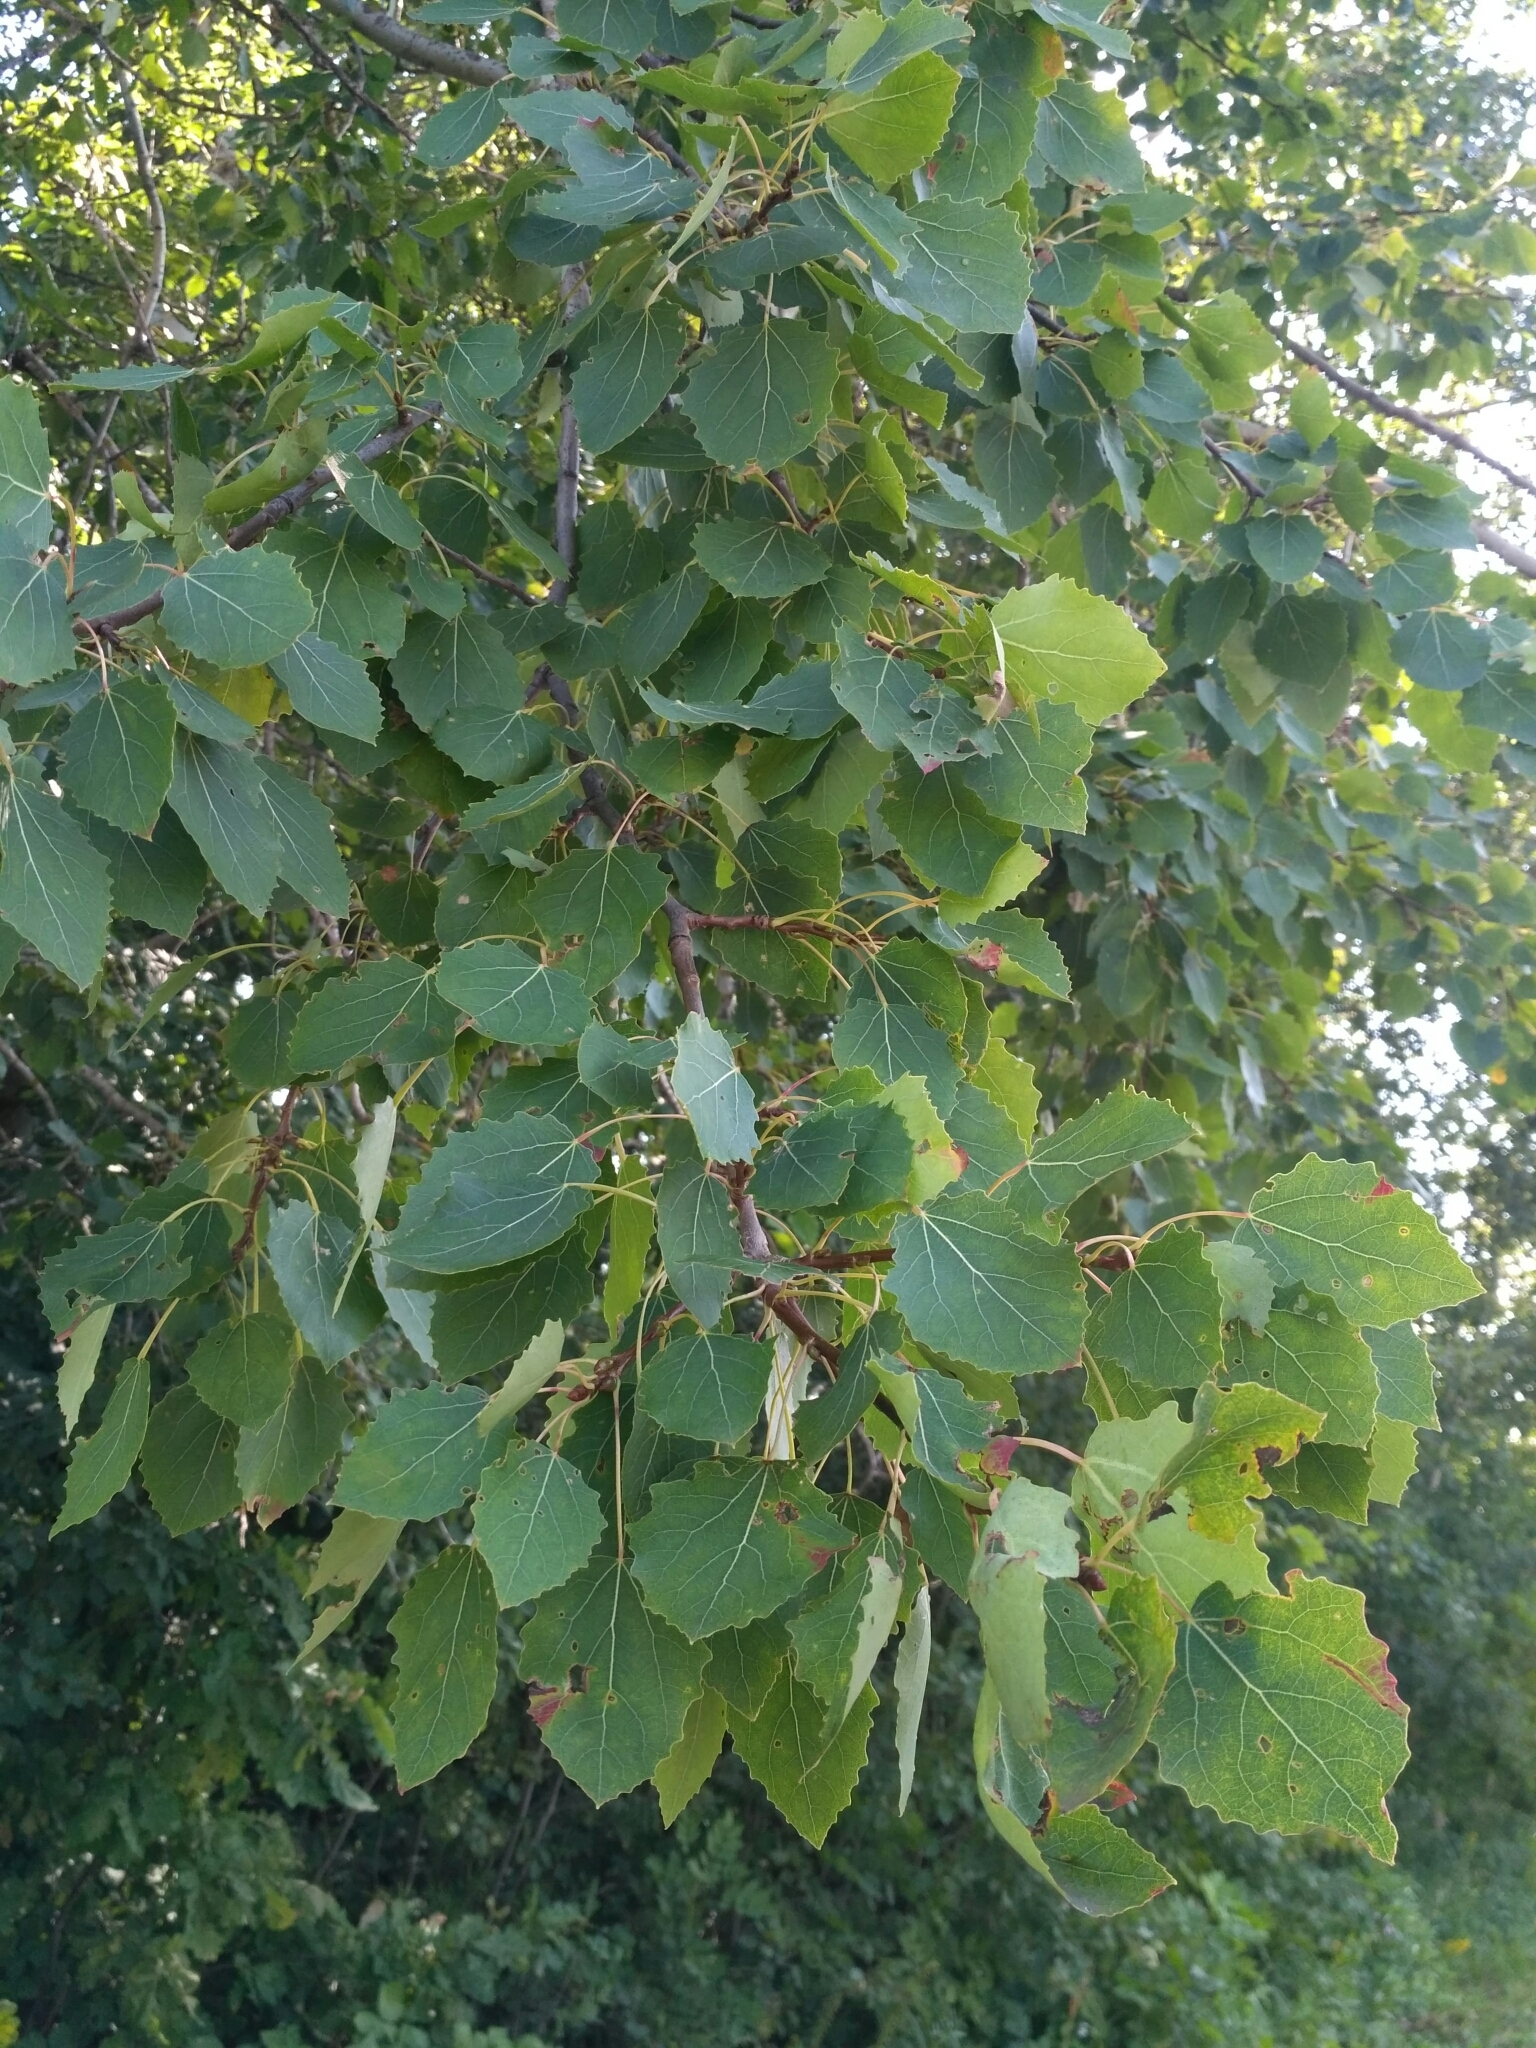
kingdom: Plantae
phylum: Tracheophyta
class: Magnoliopsida
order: Malpighiales
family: Salicaceae
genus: Populus
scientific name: Populus tremula
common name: European aspen
